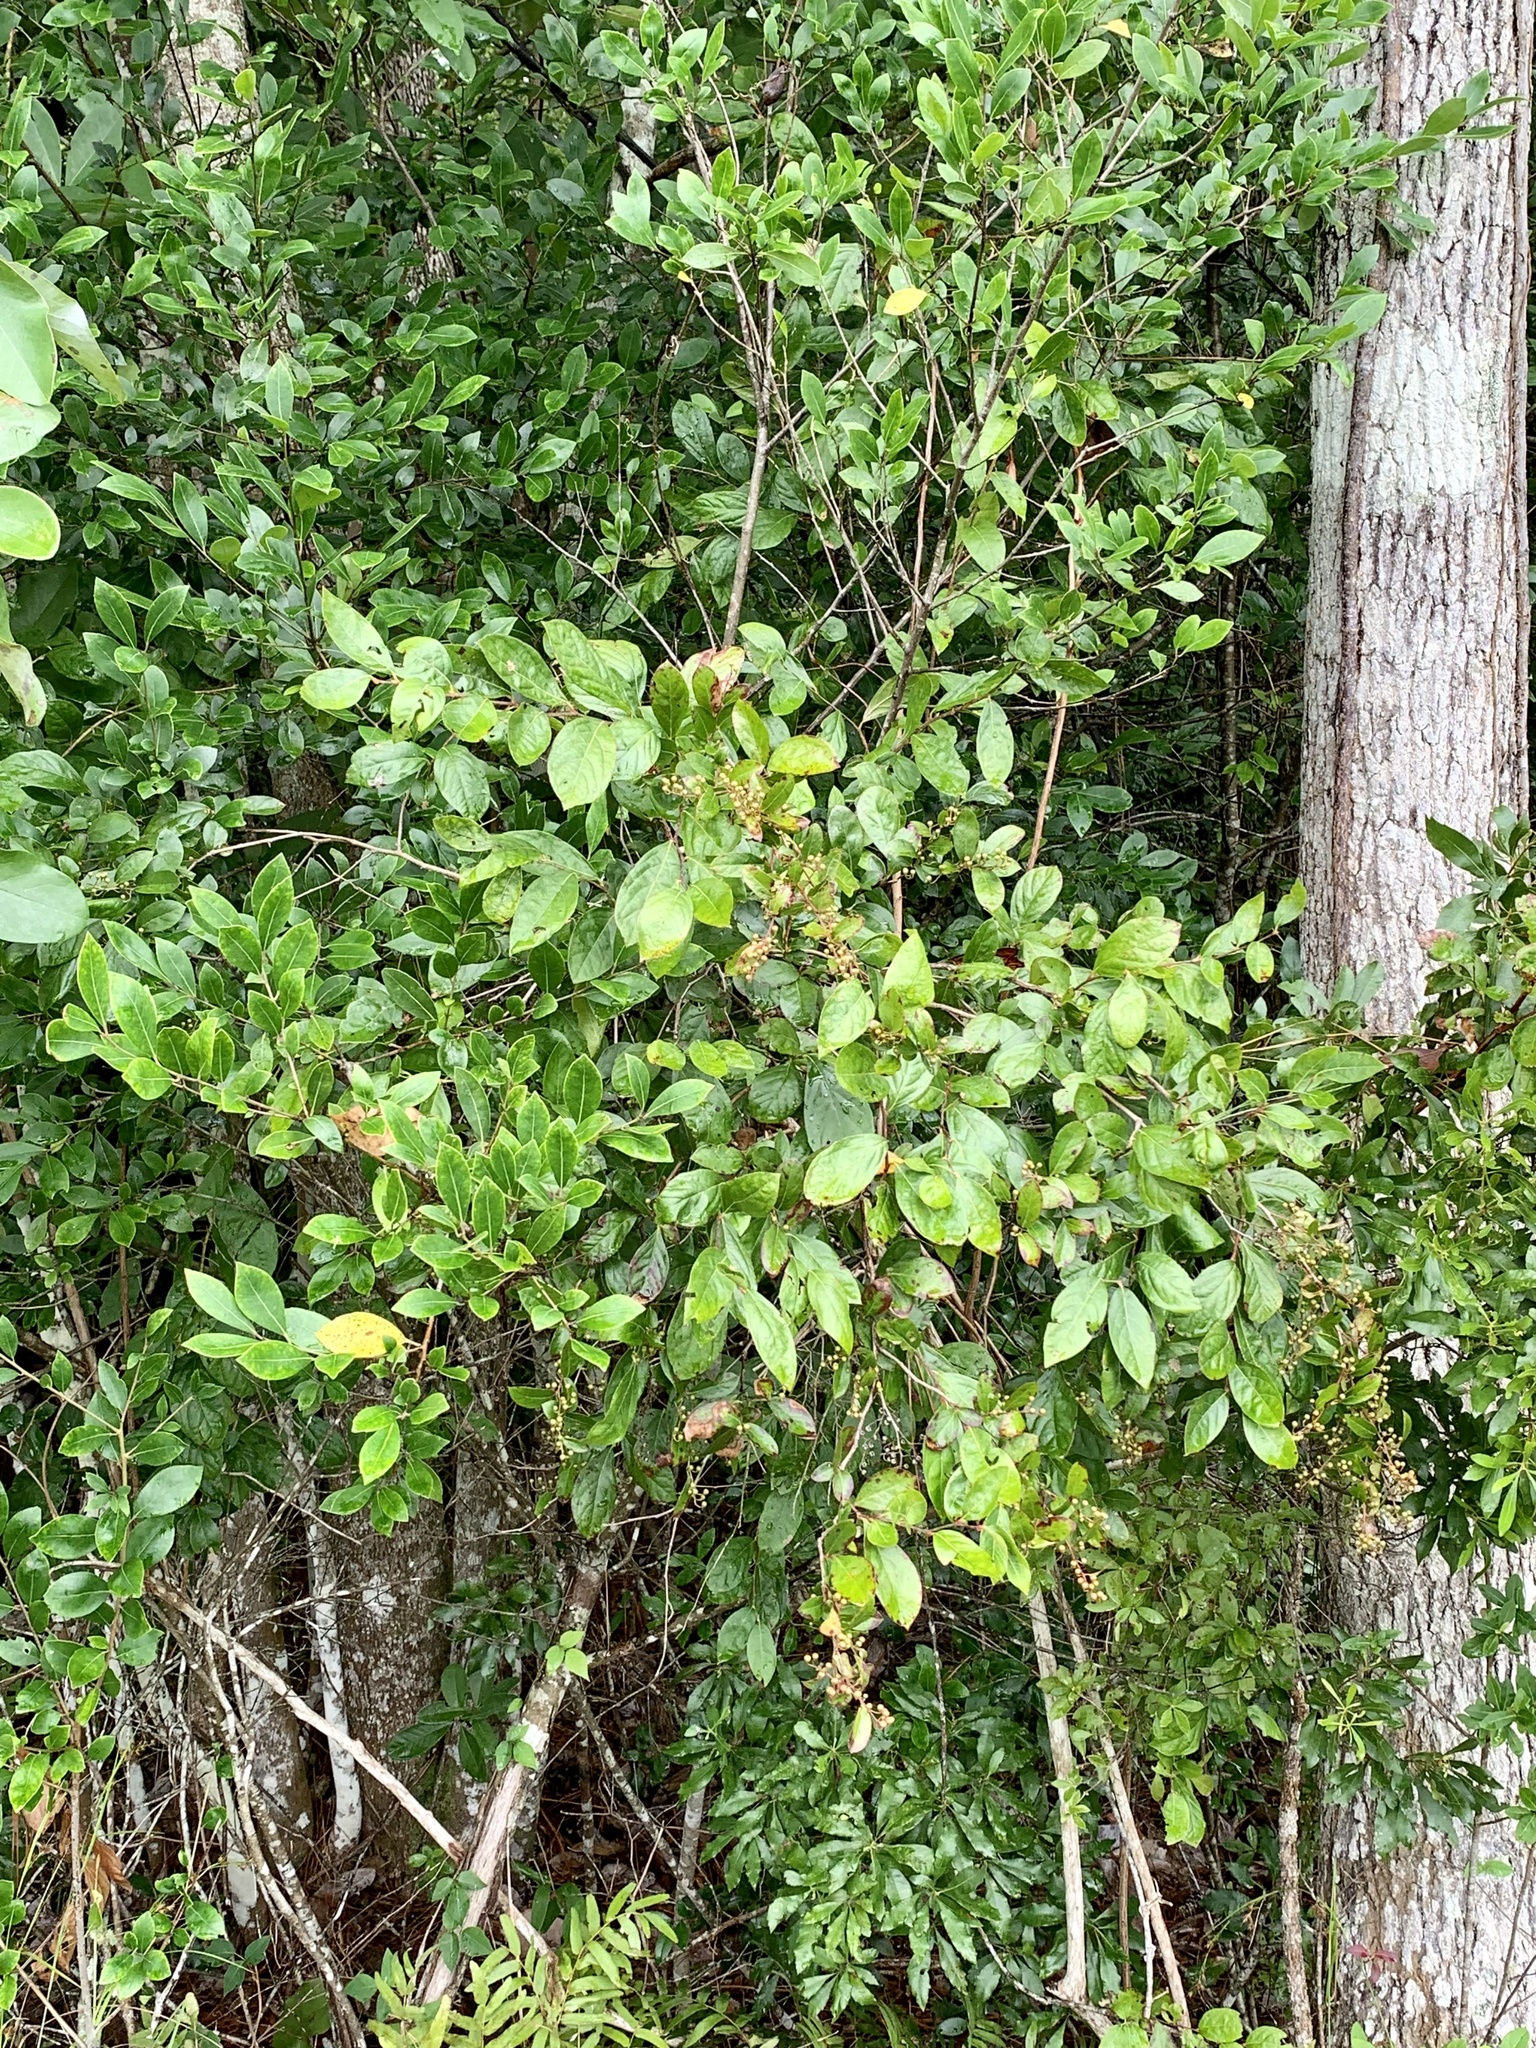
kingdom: Plantae
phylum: Tracheophyta
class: Magnoliopsida
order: Ericales
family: Ericaceae
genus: Lyonia
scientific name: Lyonia ligustrina
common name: Maleberry
